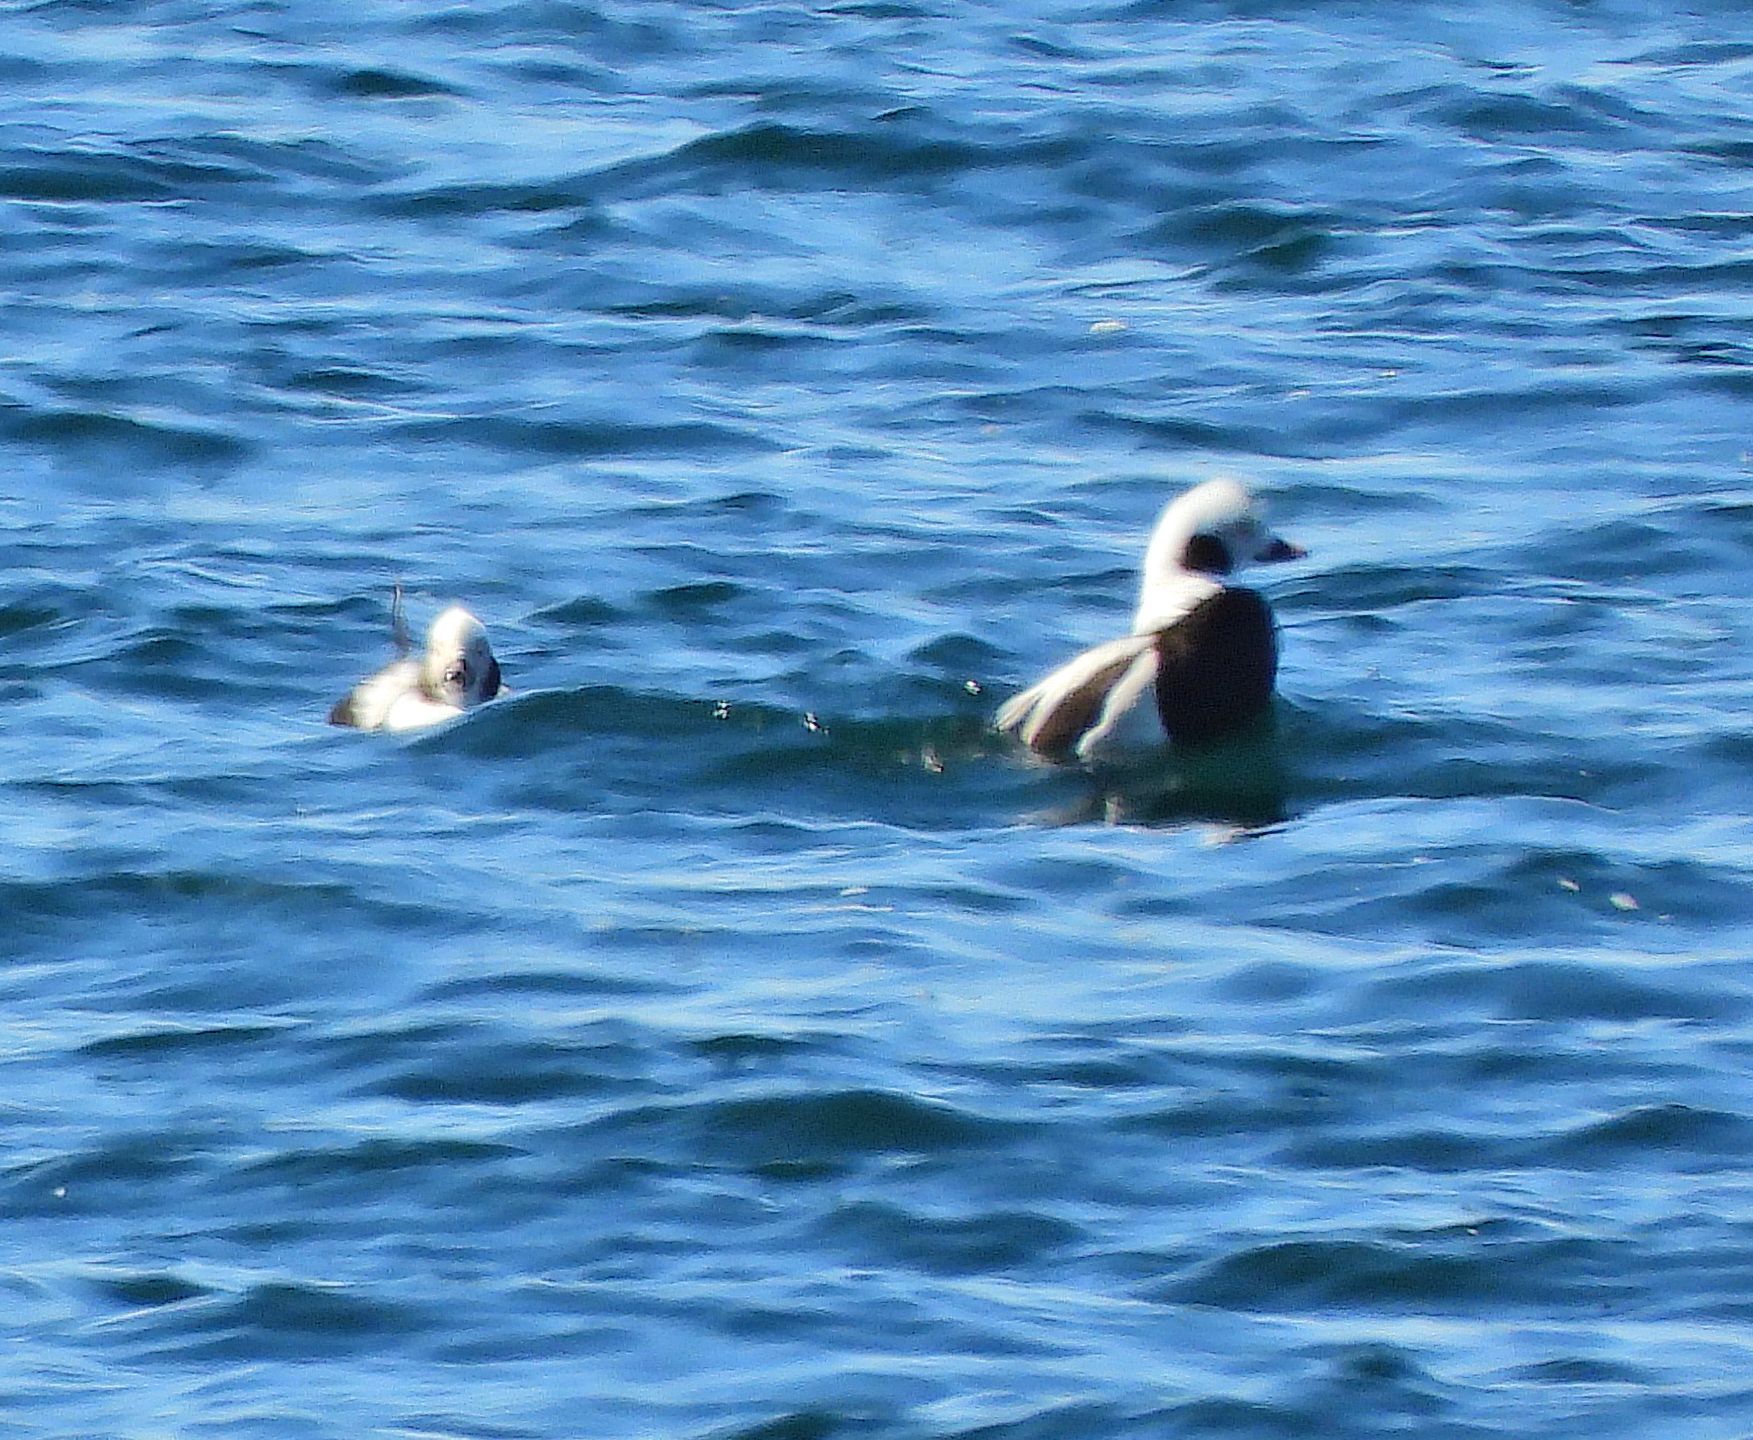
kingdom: Animalia
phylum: Chordata
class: Aves
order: Anseriformes
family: Anatidae
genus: Clangula
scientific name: Clangula hyemalis
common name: Long-tailed duck
